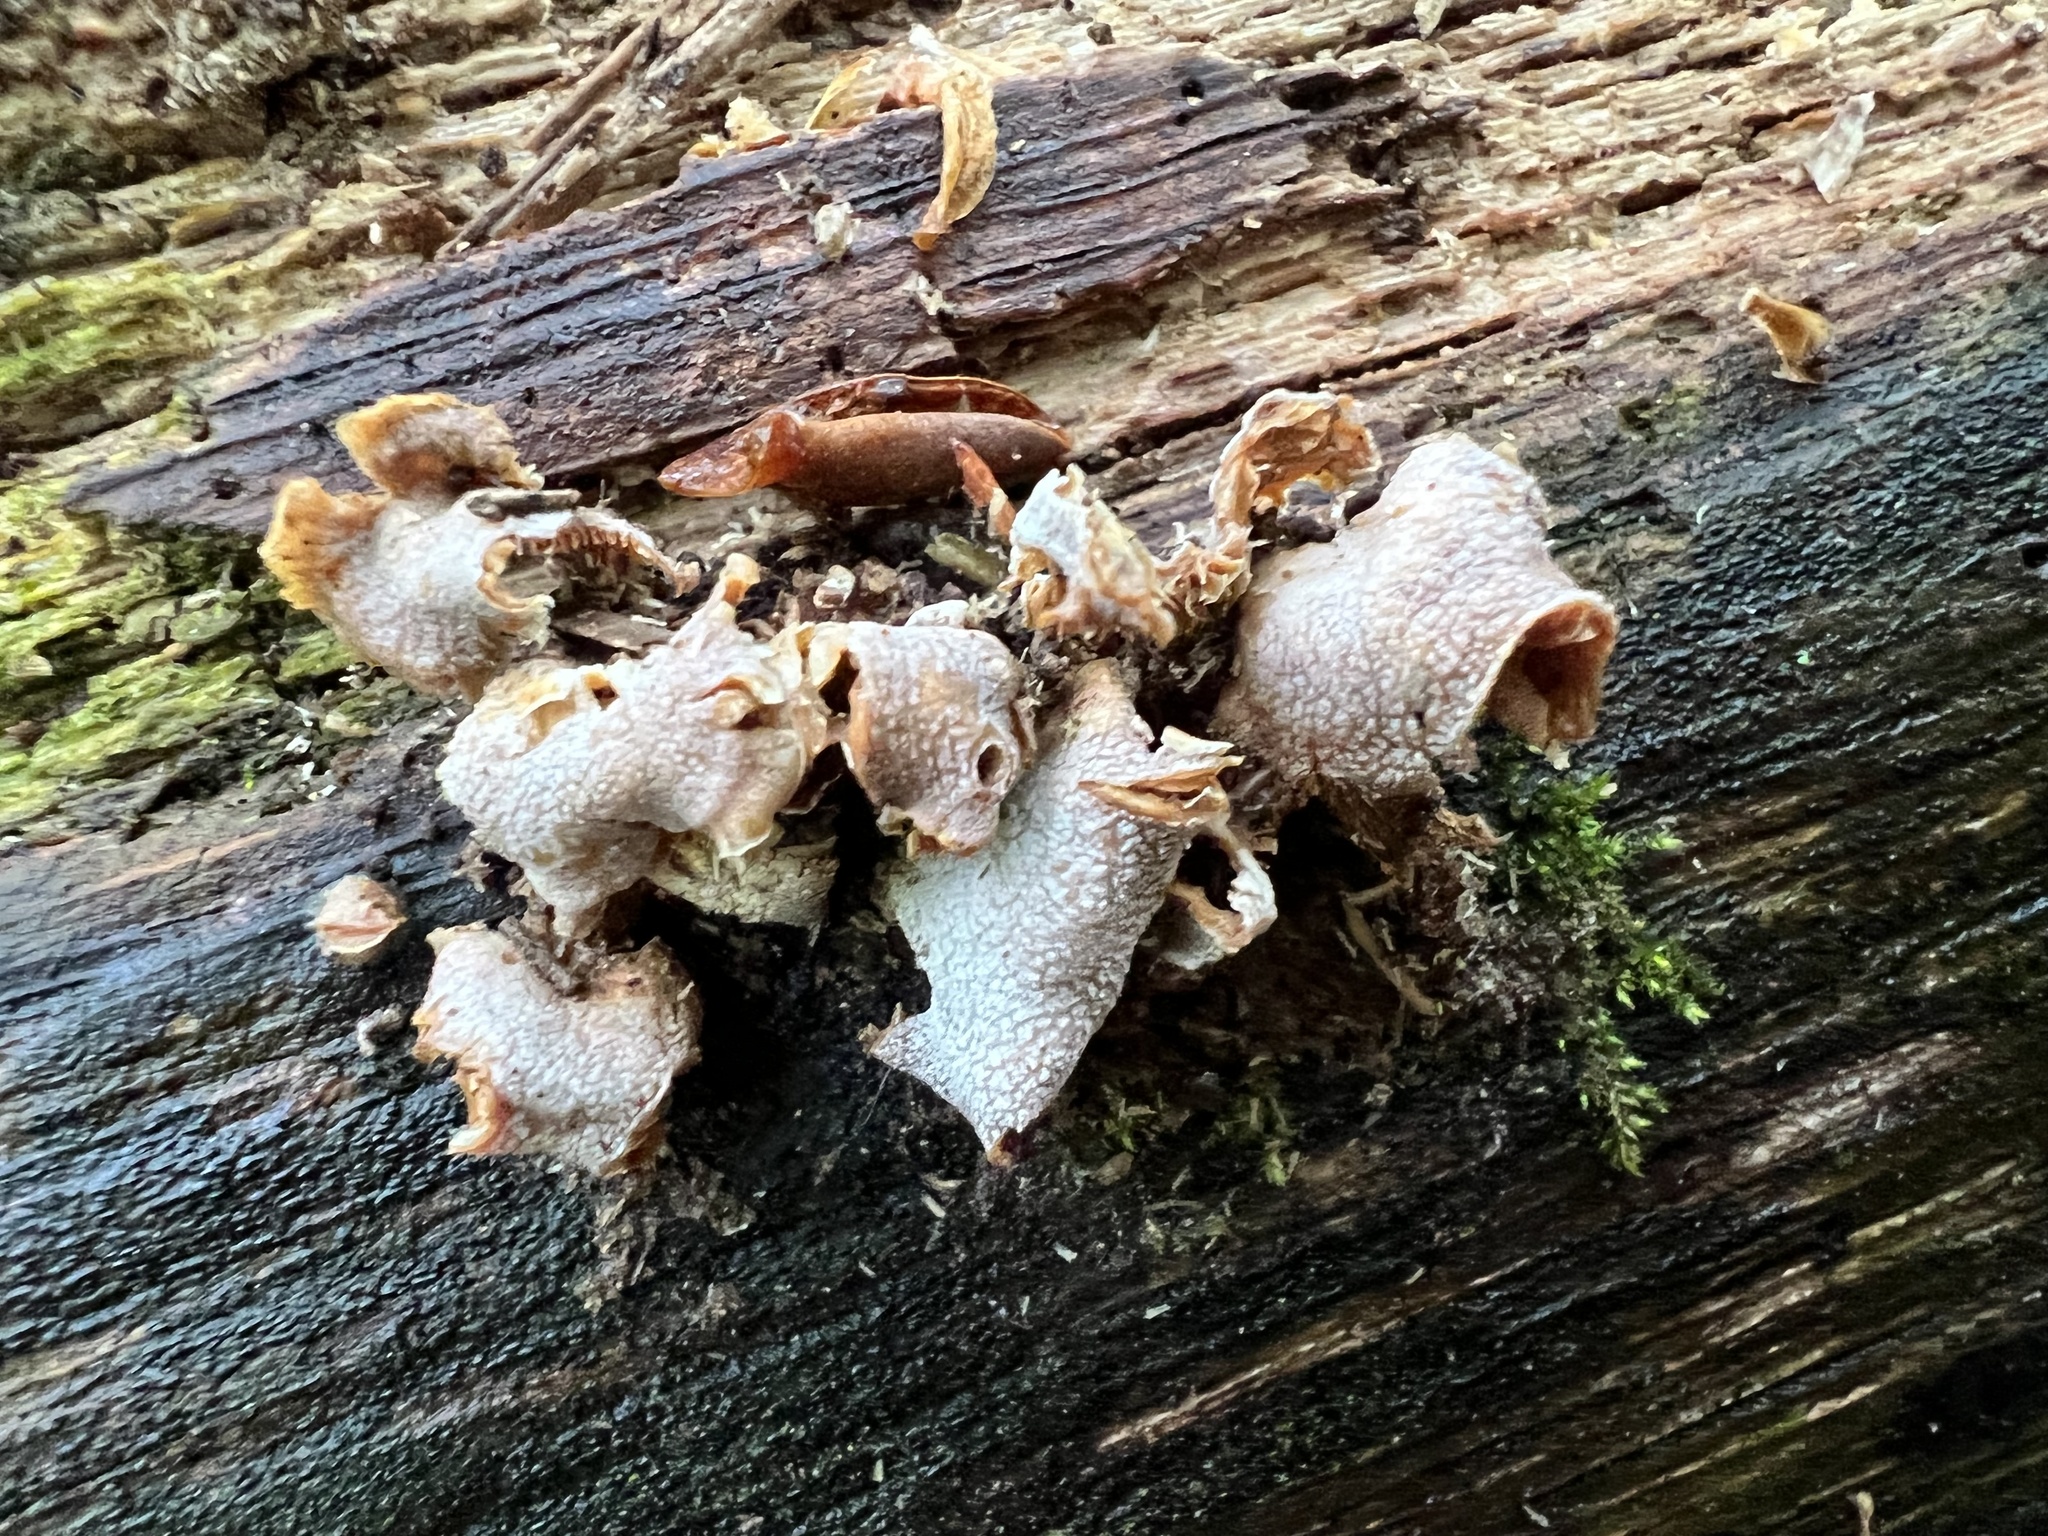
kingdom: Fungi
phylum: Basidiomycota
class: Agaricomycetes
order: Agaricales
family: Mycenaceae
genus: Panellus
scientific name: Panellus stipticus
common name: Bitter oysterling
